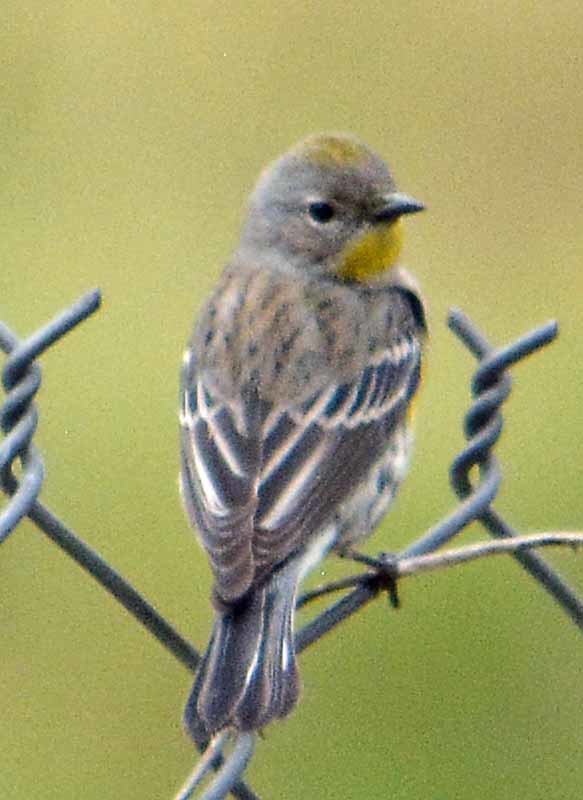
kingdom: Animalia
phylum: Chordata
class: Aves
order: Passeriformes
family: Parulidae
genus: Setophaga
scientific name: Setophaga coronata
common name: Myrtle warbler
